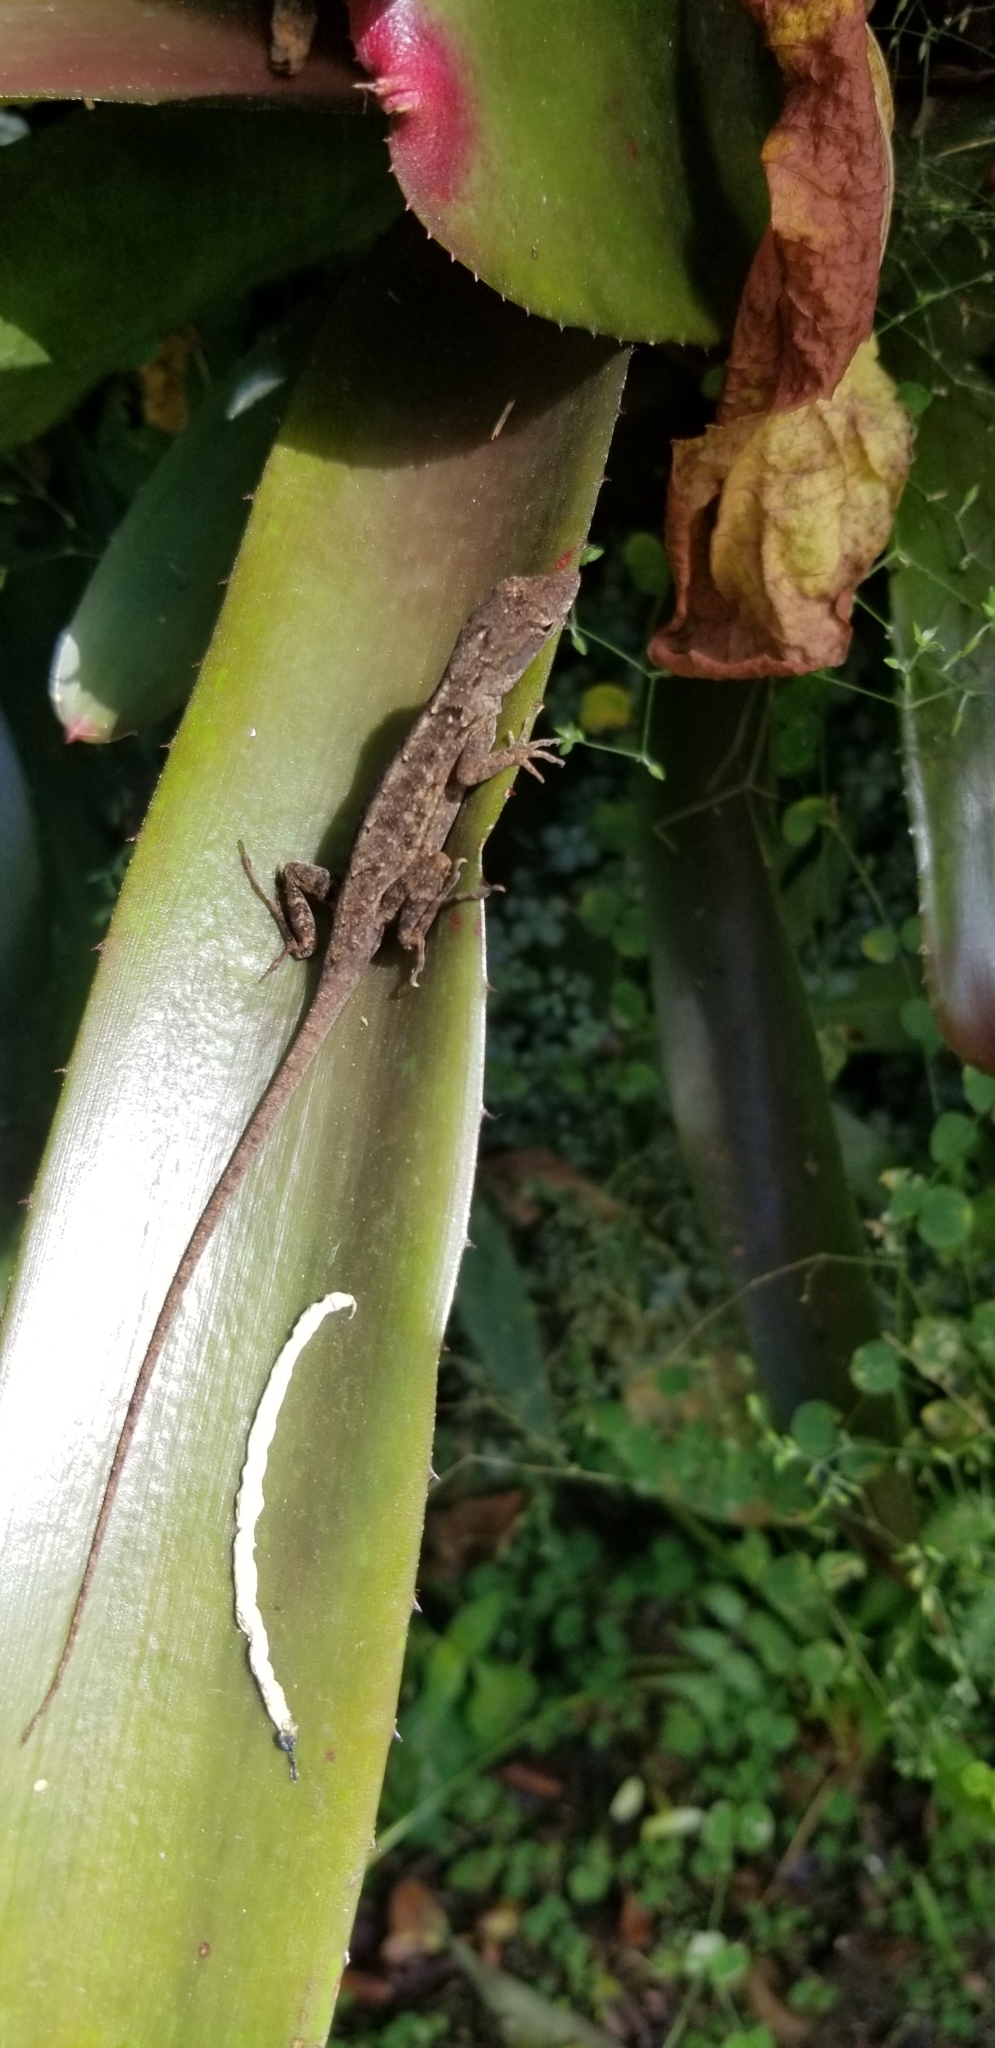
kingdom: Animalia
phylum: Chordata
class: Squamata
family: Dactyloidae
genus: Anolis
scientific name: Anolis sagrei
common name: Brown anole
